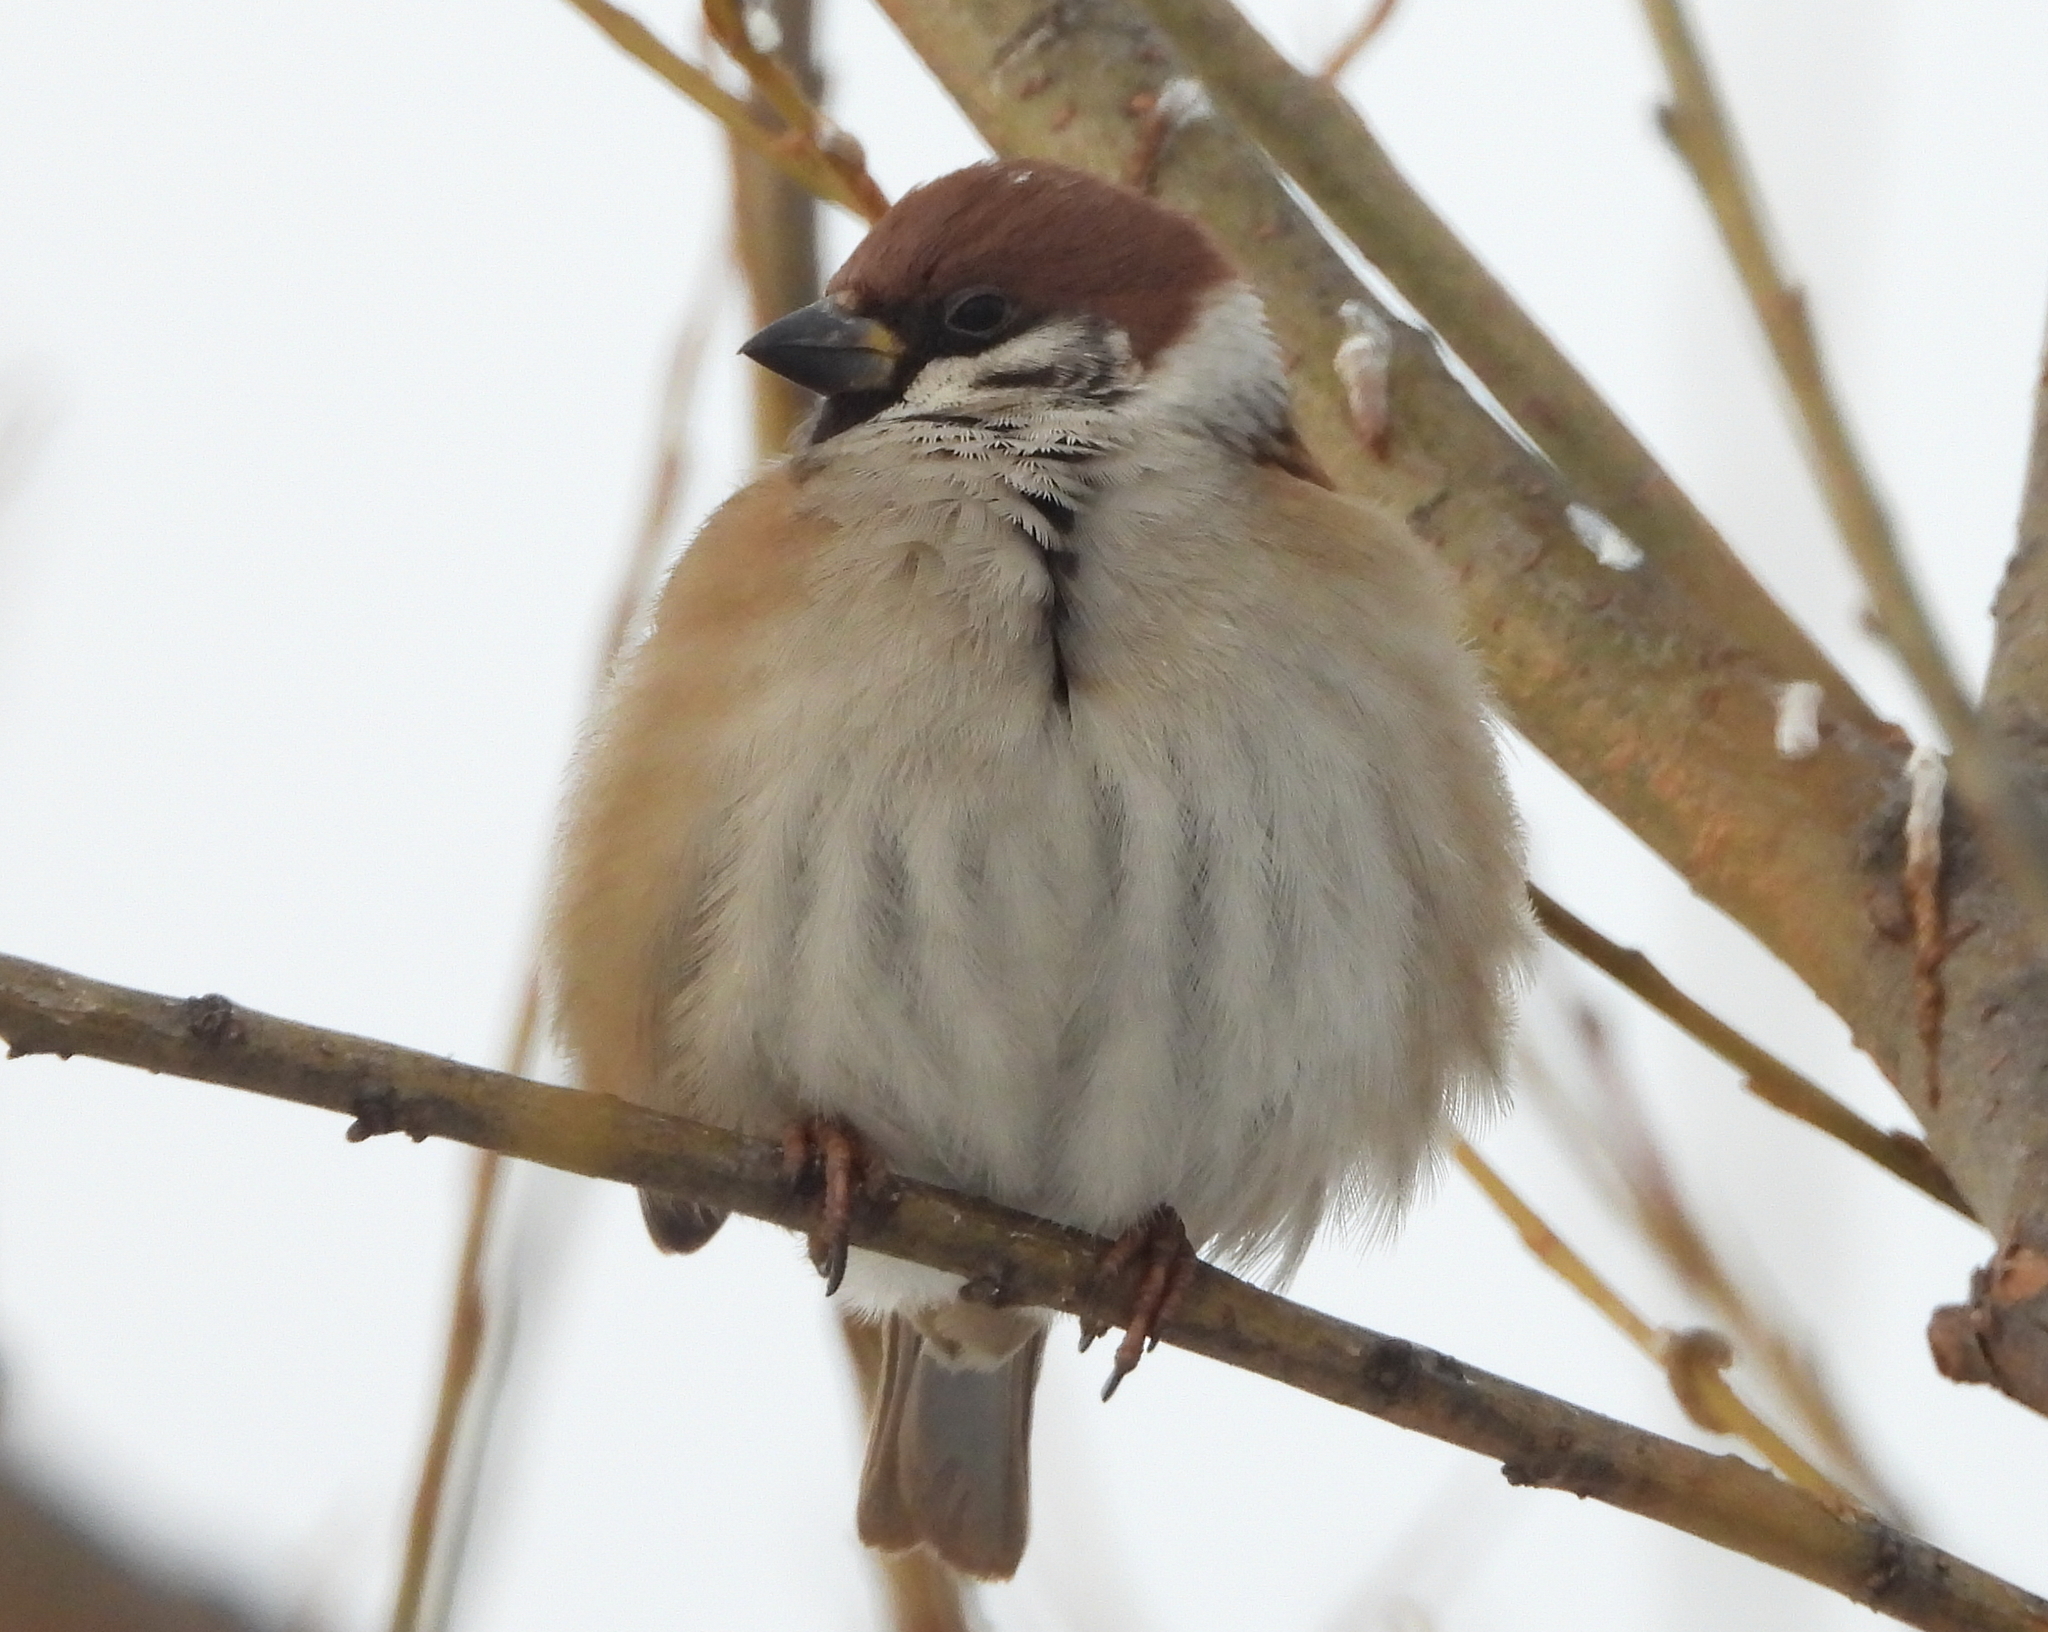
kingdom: Animalia
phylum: Chordata
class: Aves
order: Passeriformes
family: Passeridae
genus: Passer
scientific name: Passer montanus
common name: Eurasian tree sparrow
